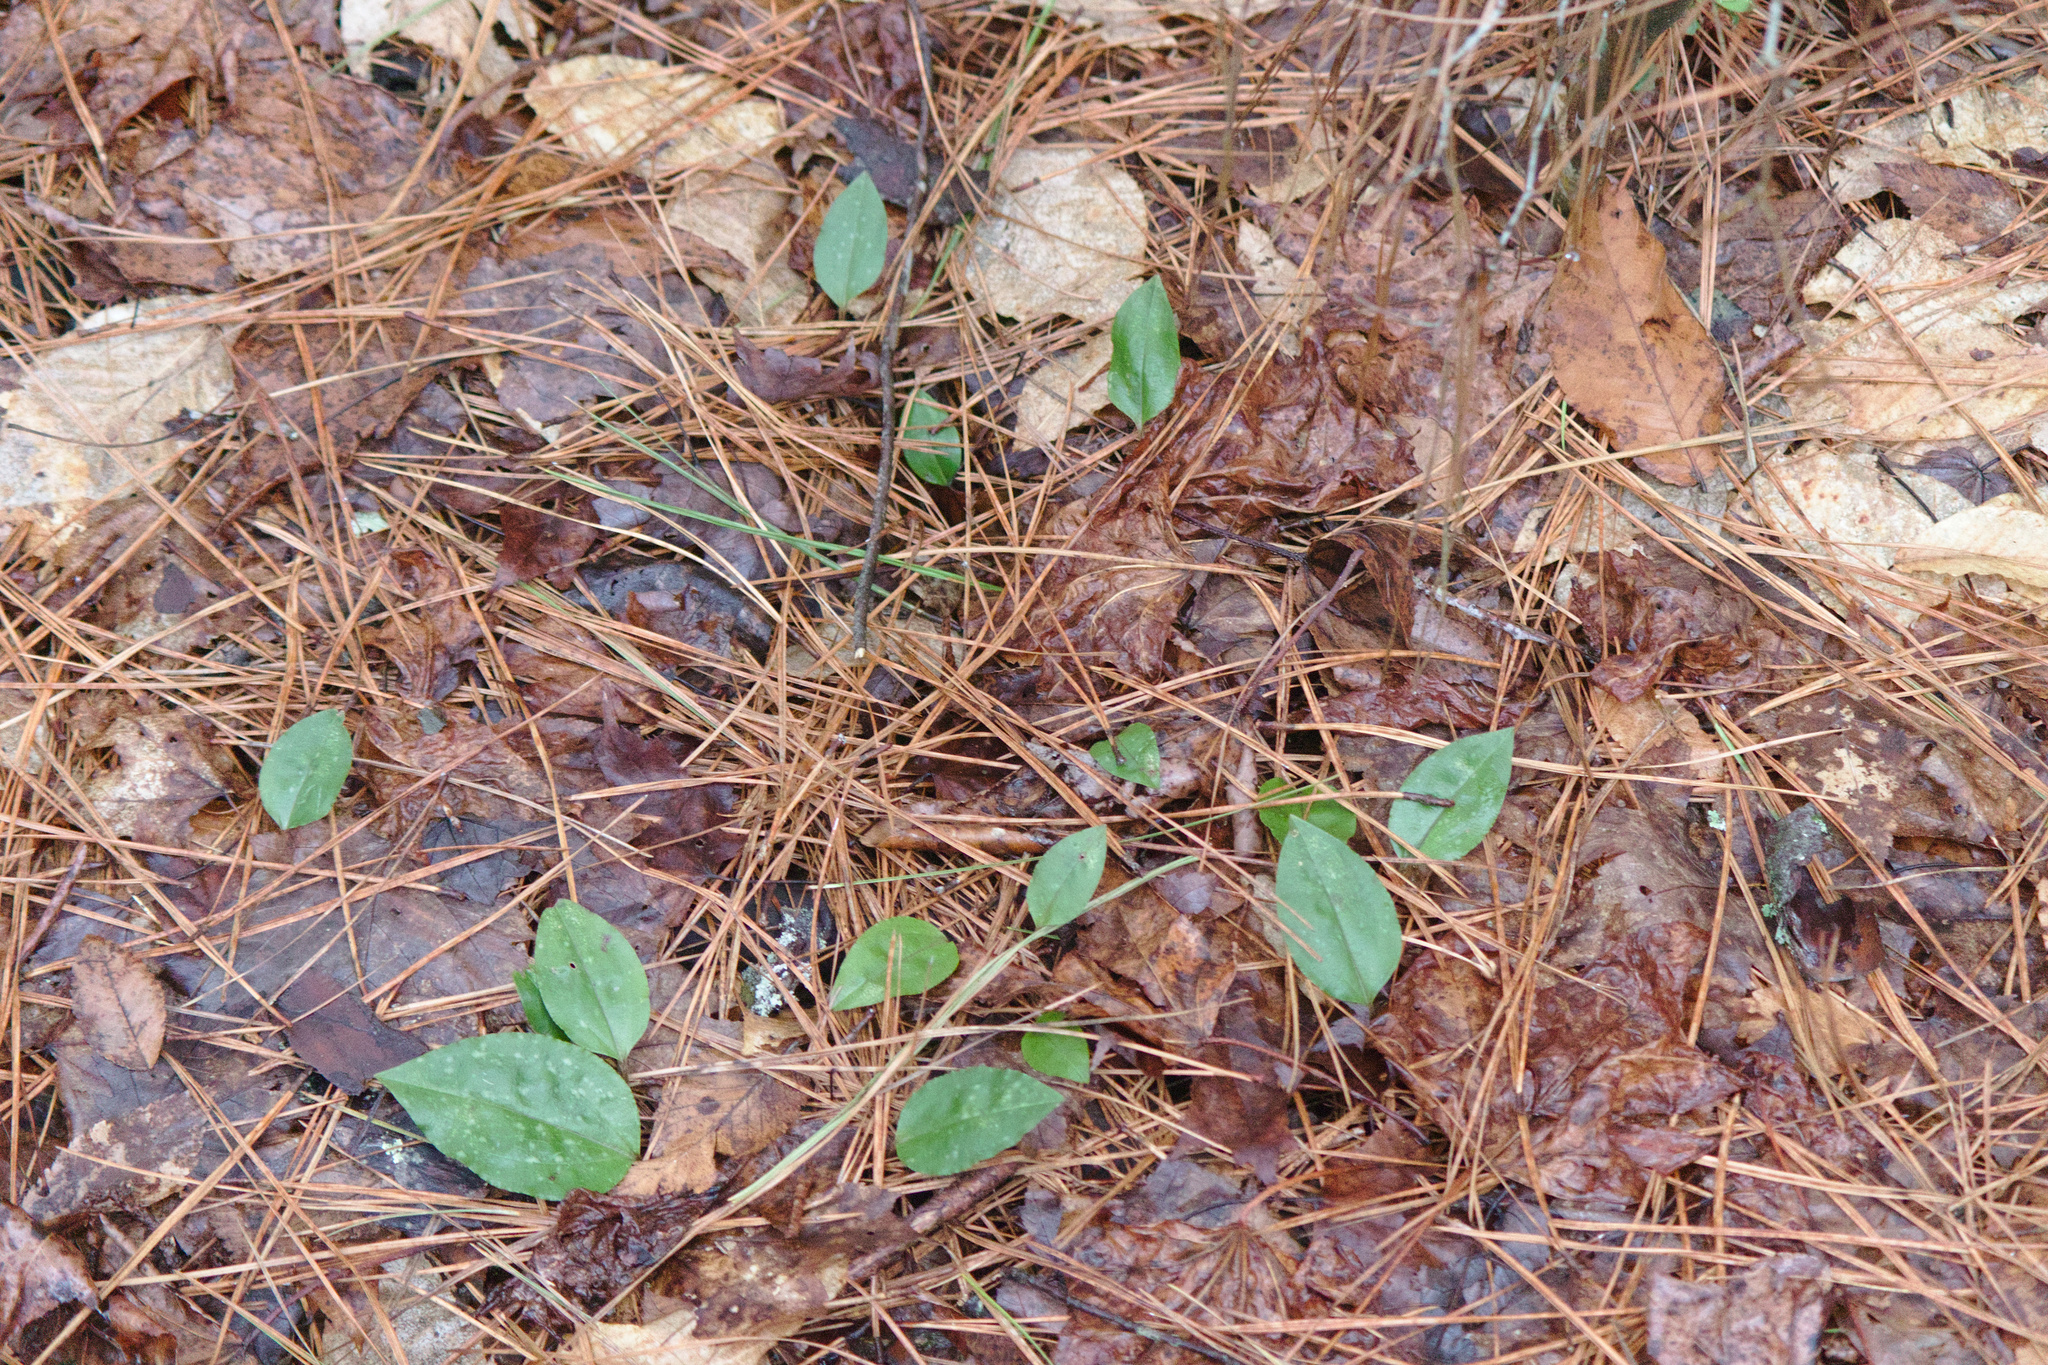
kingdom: Plantae
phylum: Tracheophyta
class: Liliopsida
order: Asparagales
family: Orchidaceae
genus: Tipularia
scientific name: Tipularia discolor
